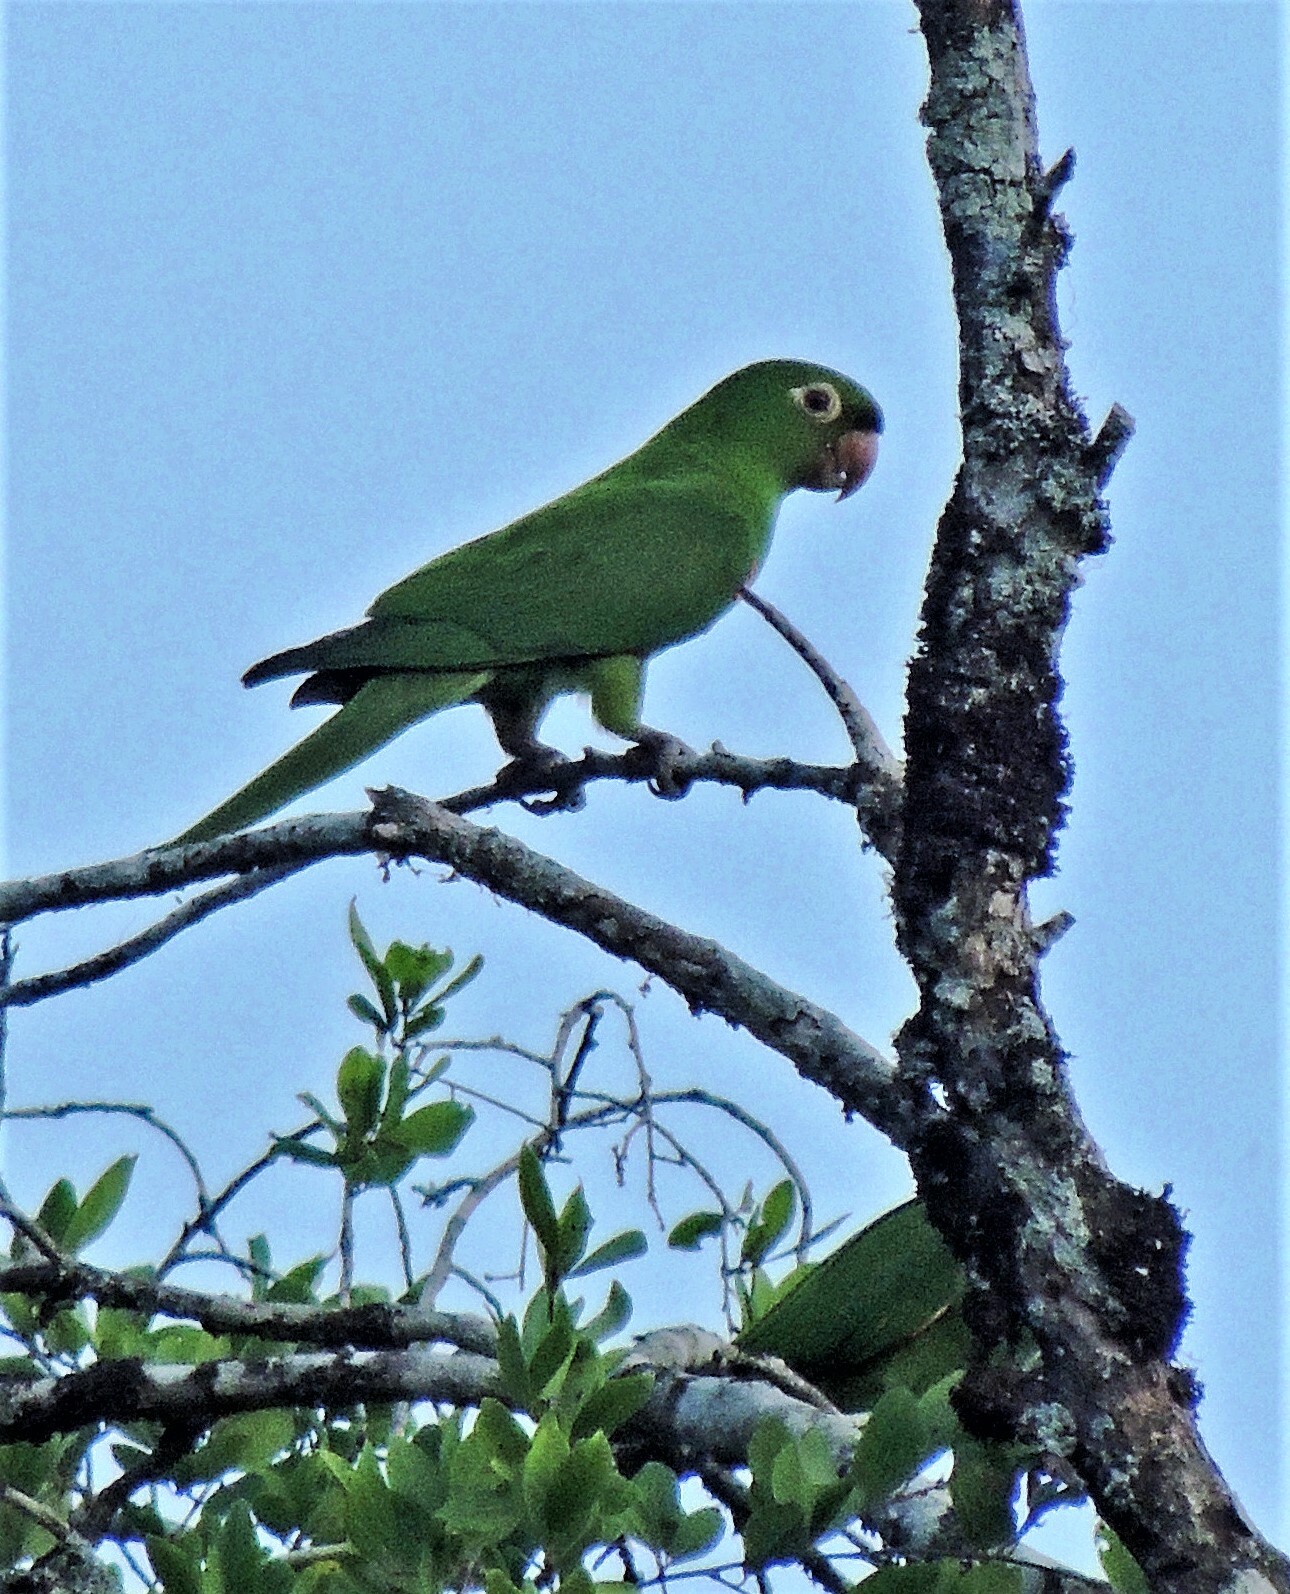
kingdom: Animalia
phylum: Chordata
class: Aves
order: Psittaciformes
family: Psittacidae
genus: Aratinga
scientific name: Aratinga leucophthalma
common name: White-eyed parakeet
